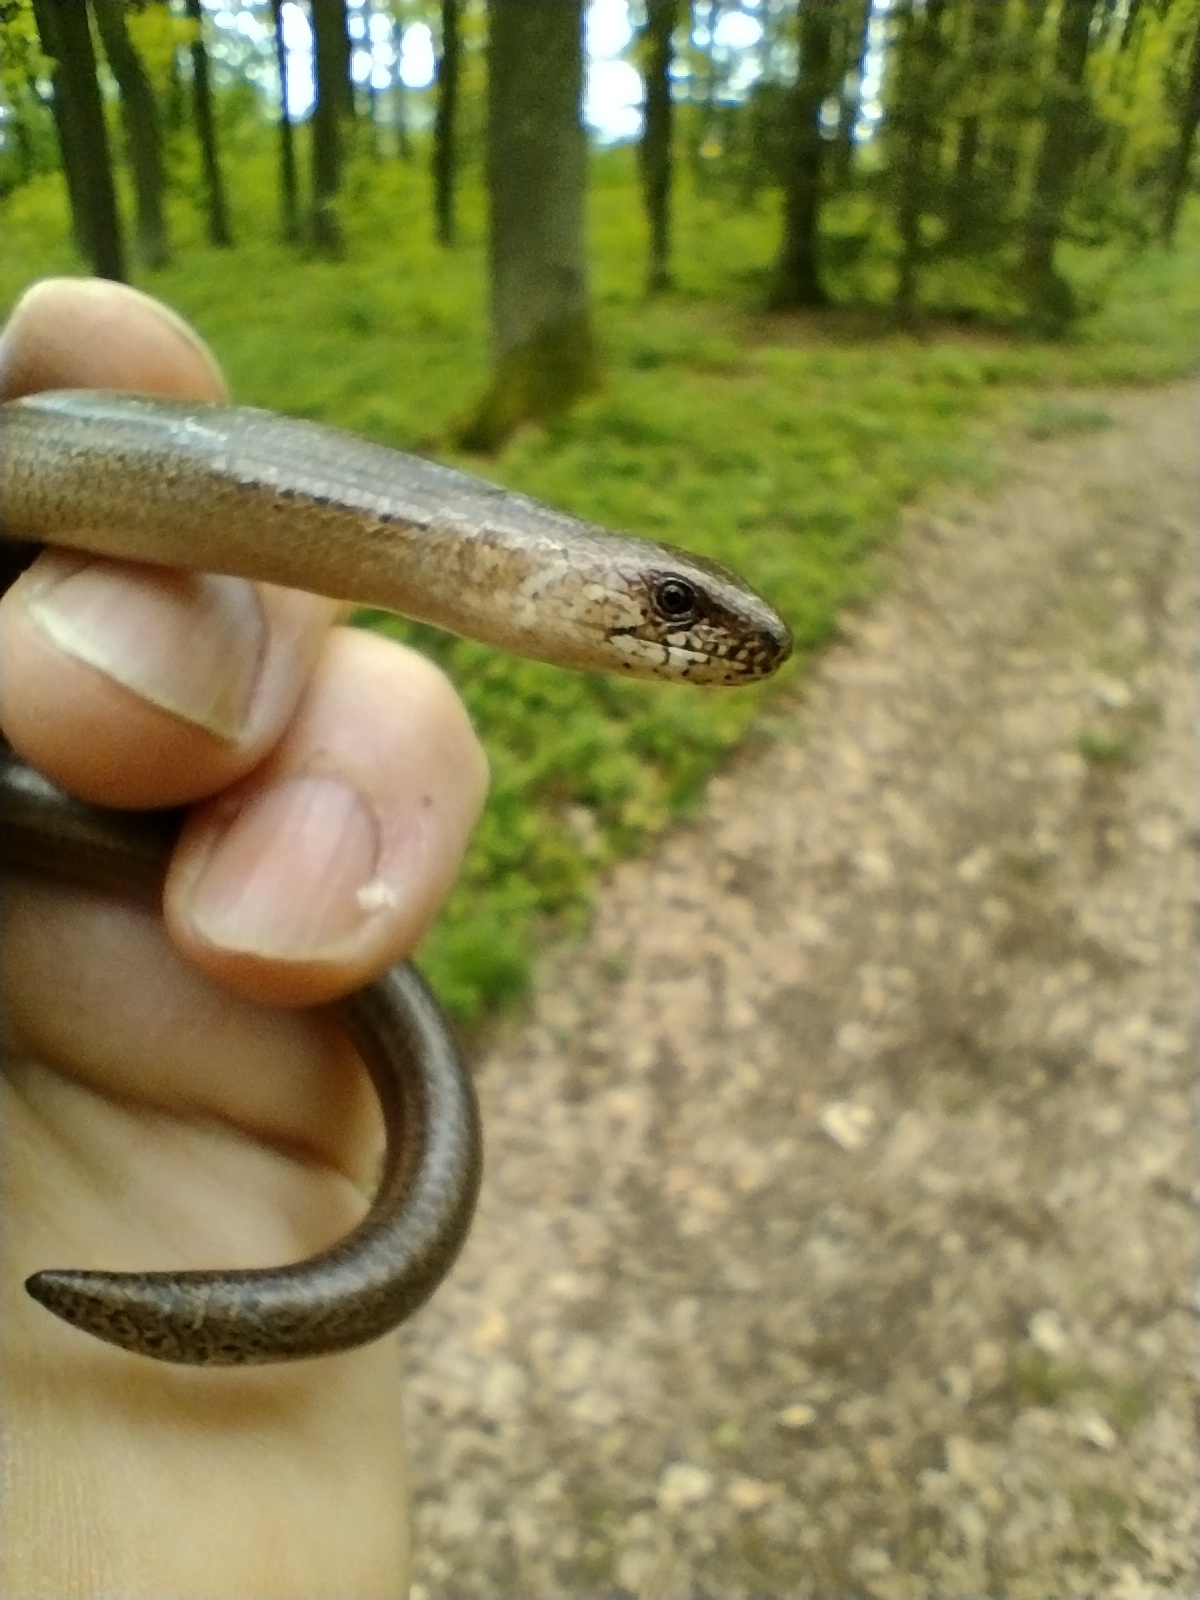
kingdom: Animalia
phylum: Chordata
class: Squamata
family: Anguidae
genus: Anguis
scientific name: Anguis fragilis
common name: Slow worm
